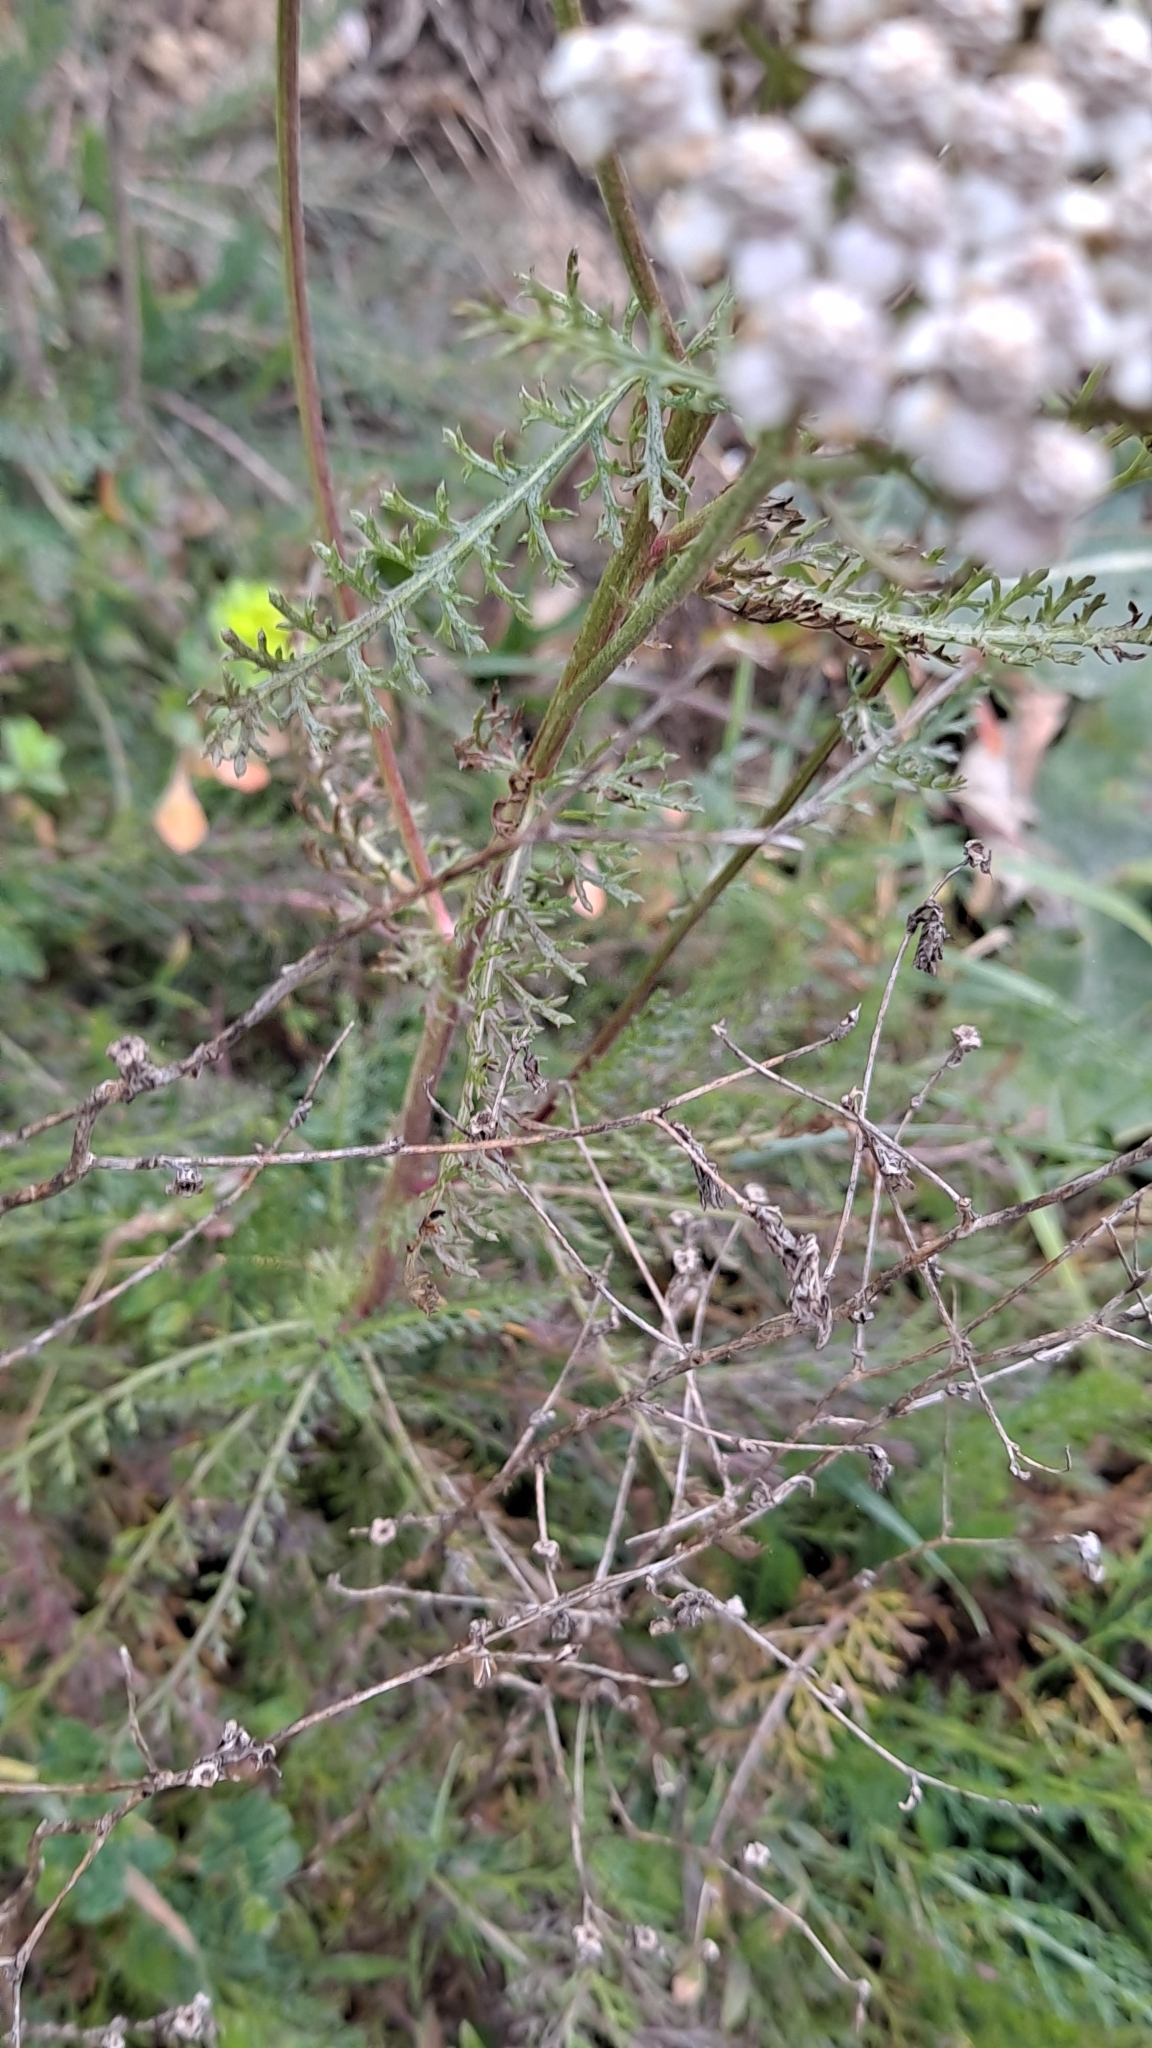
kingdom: Plantae
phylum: Tracheophyta
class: Magnoliopsida
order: Asterales
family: Asteraceae
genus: Achillea
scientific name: Achillea millefolium
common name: Yarrow
